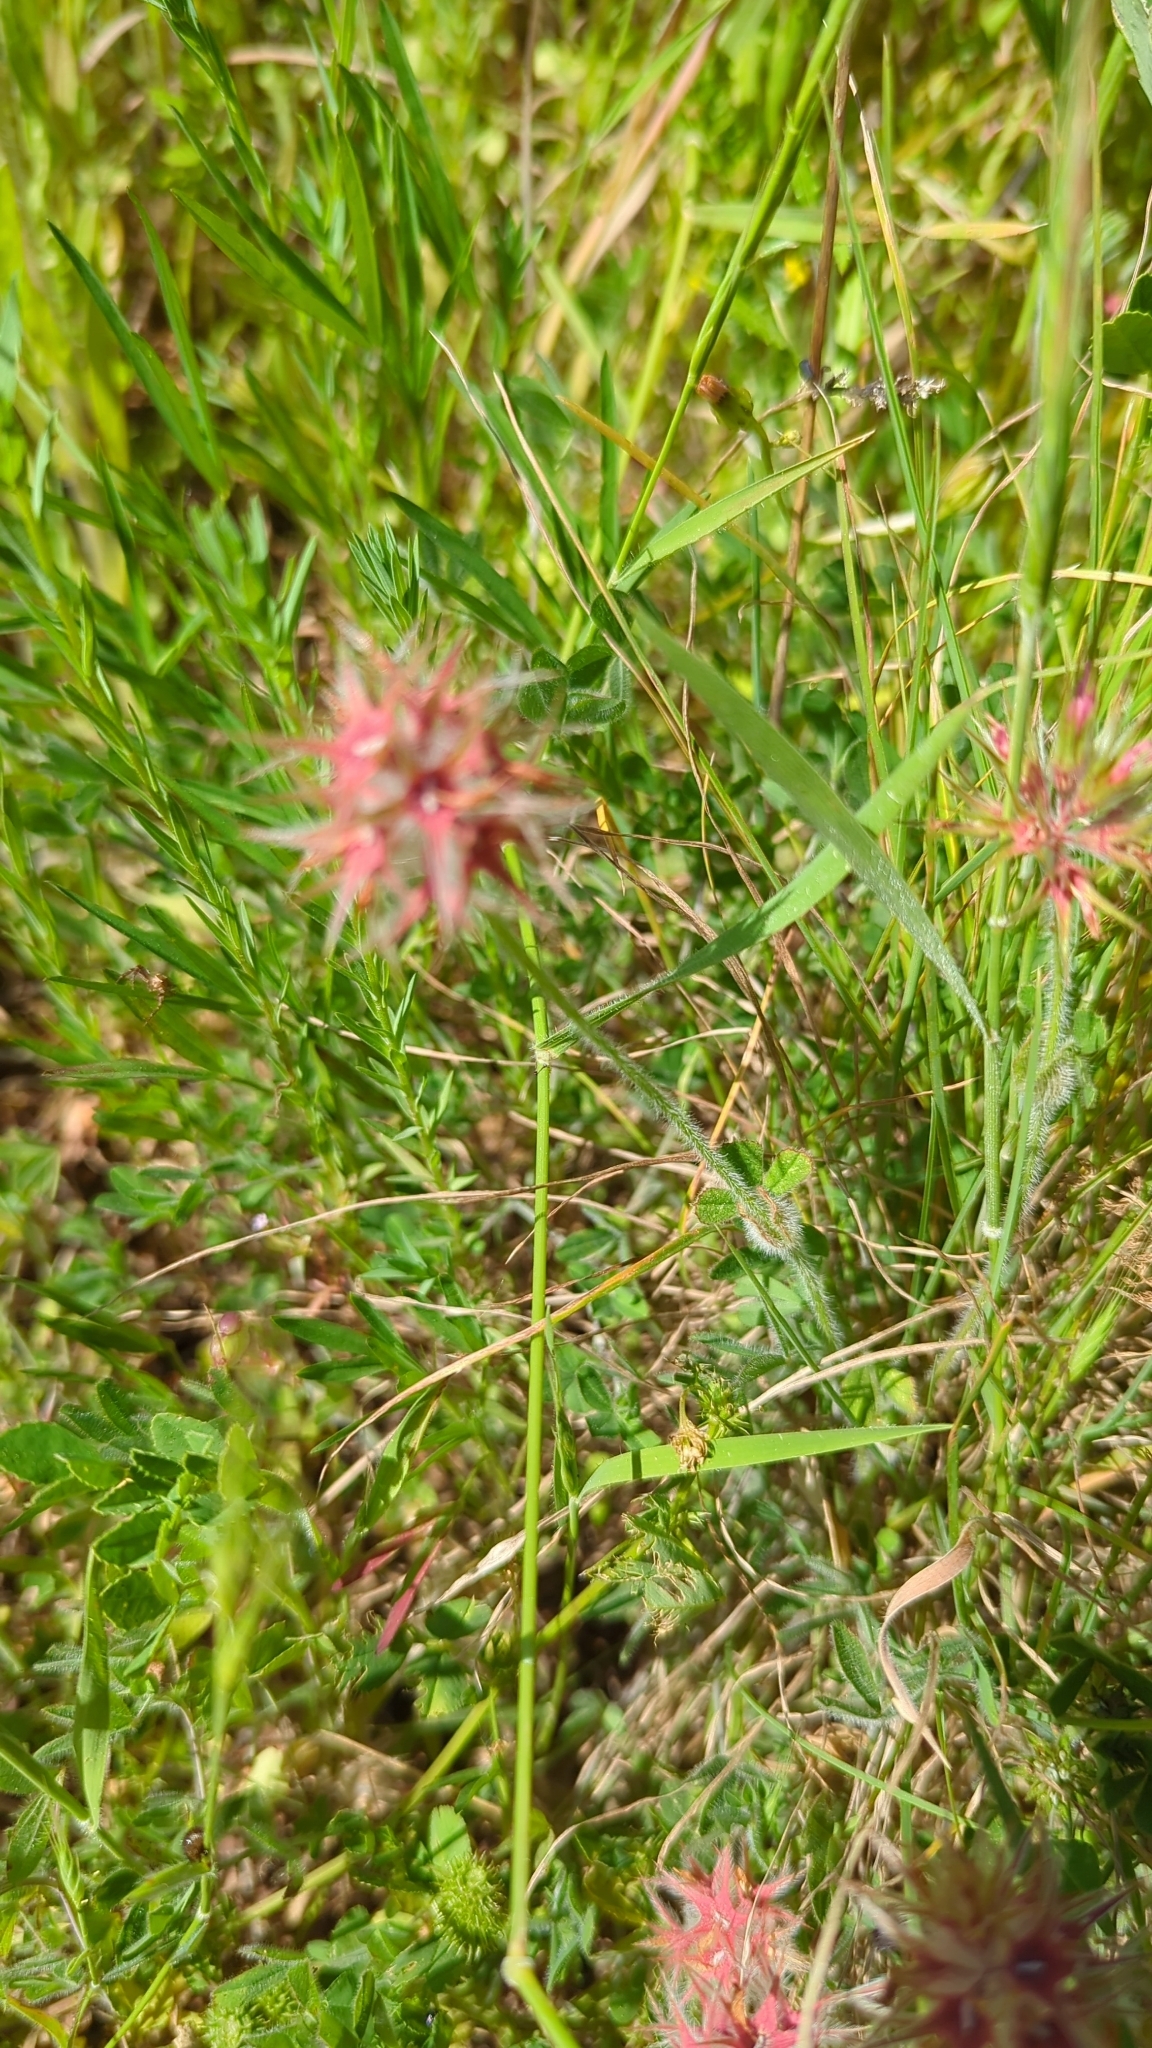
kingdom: Plantae
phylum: Tracheophyta
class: Magnoliopsida
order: Fabales
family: Fabaceae
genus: Trifolium
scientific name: Trifolium stellatum
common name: Starry clover
